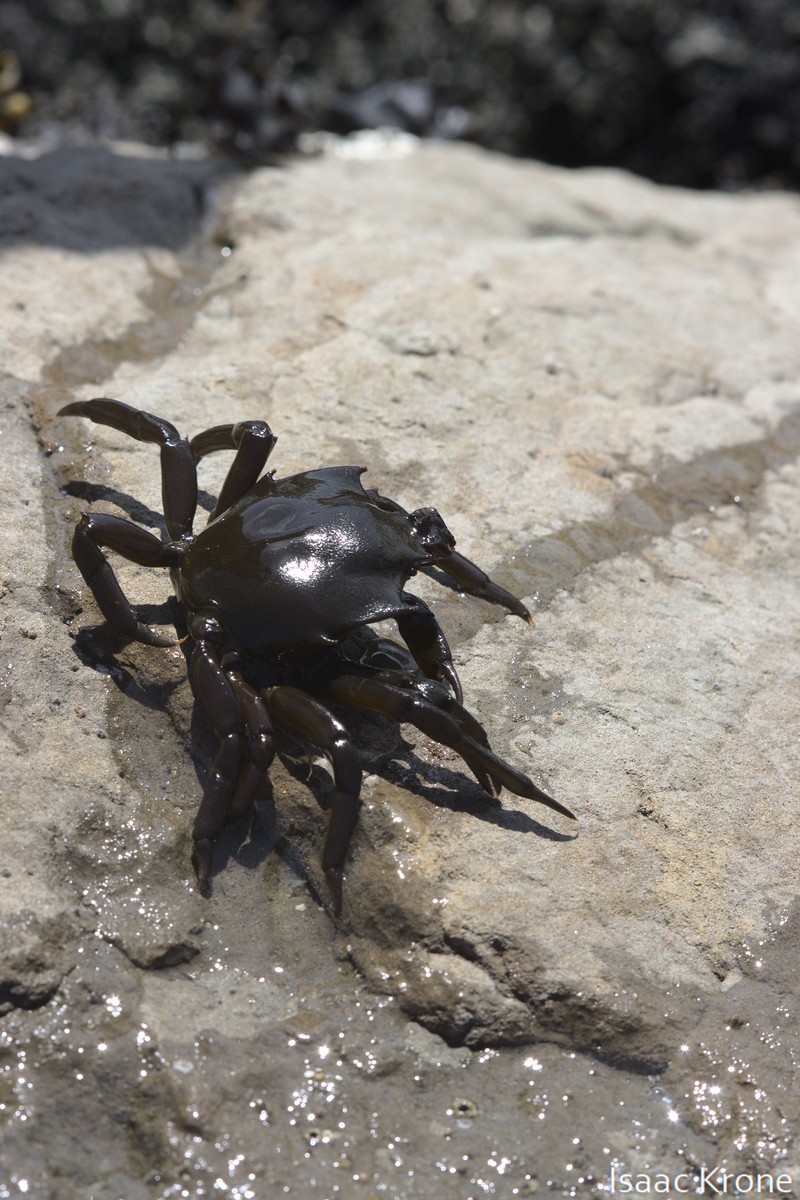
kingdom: Animalia
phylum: Arthropoda
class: Malacostraca
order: Decapoda
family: Epialtidae
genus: Pugettia
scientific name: Pugettia producta
